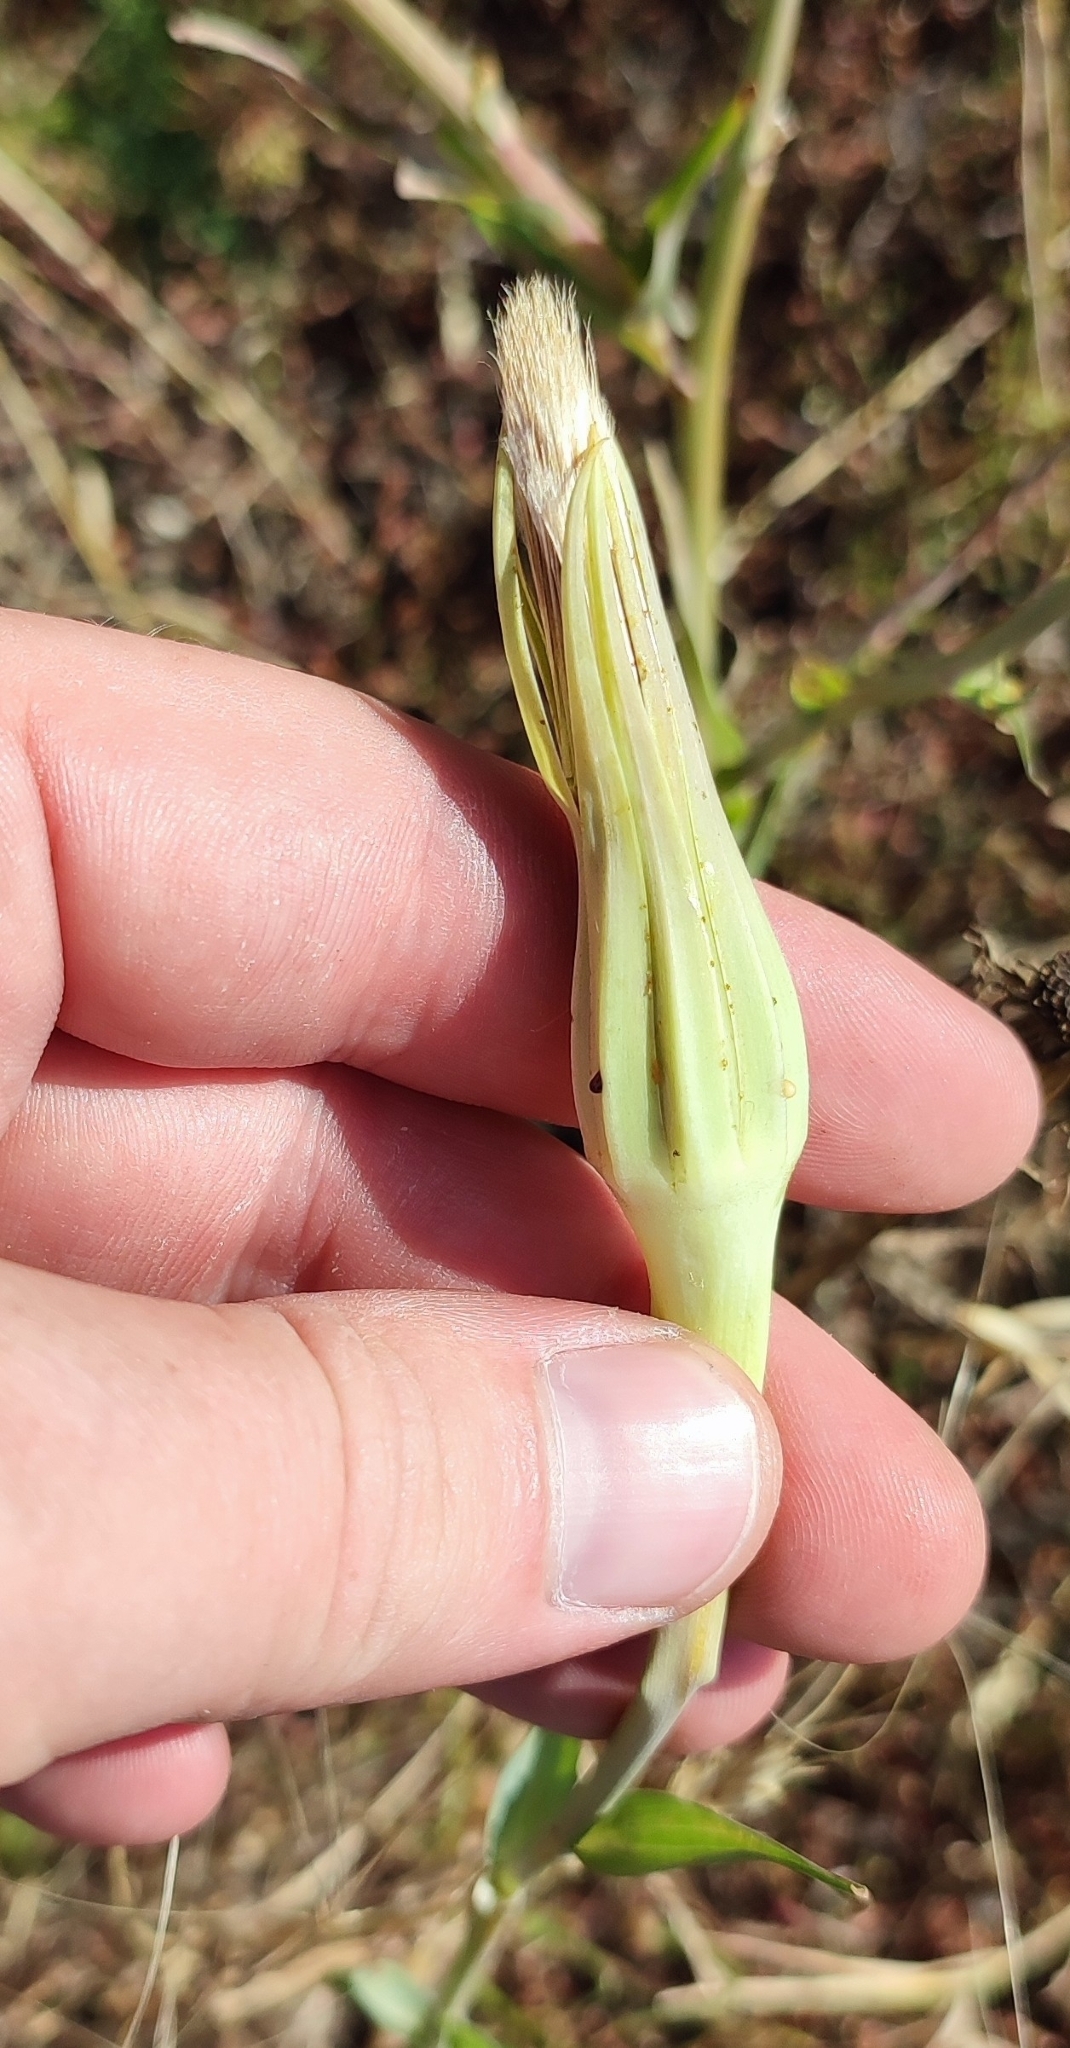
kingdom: Plantae
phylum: Tracheophyta
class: Magnoliopsida
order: Asterales
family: Asteraceae
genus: Tragopogon
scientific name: Tragopogon dubius
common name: Yellow salsify
